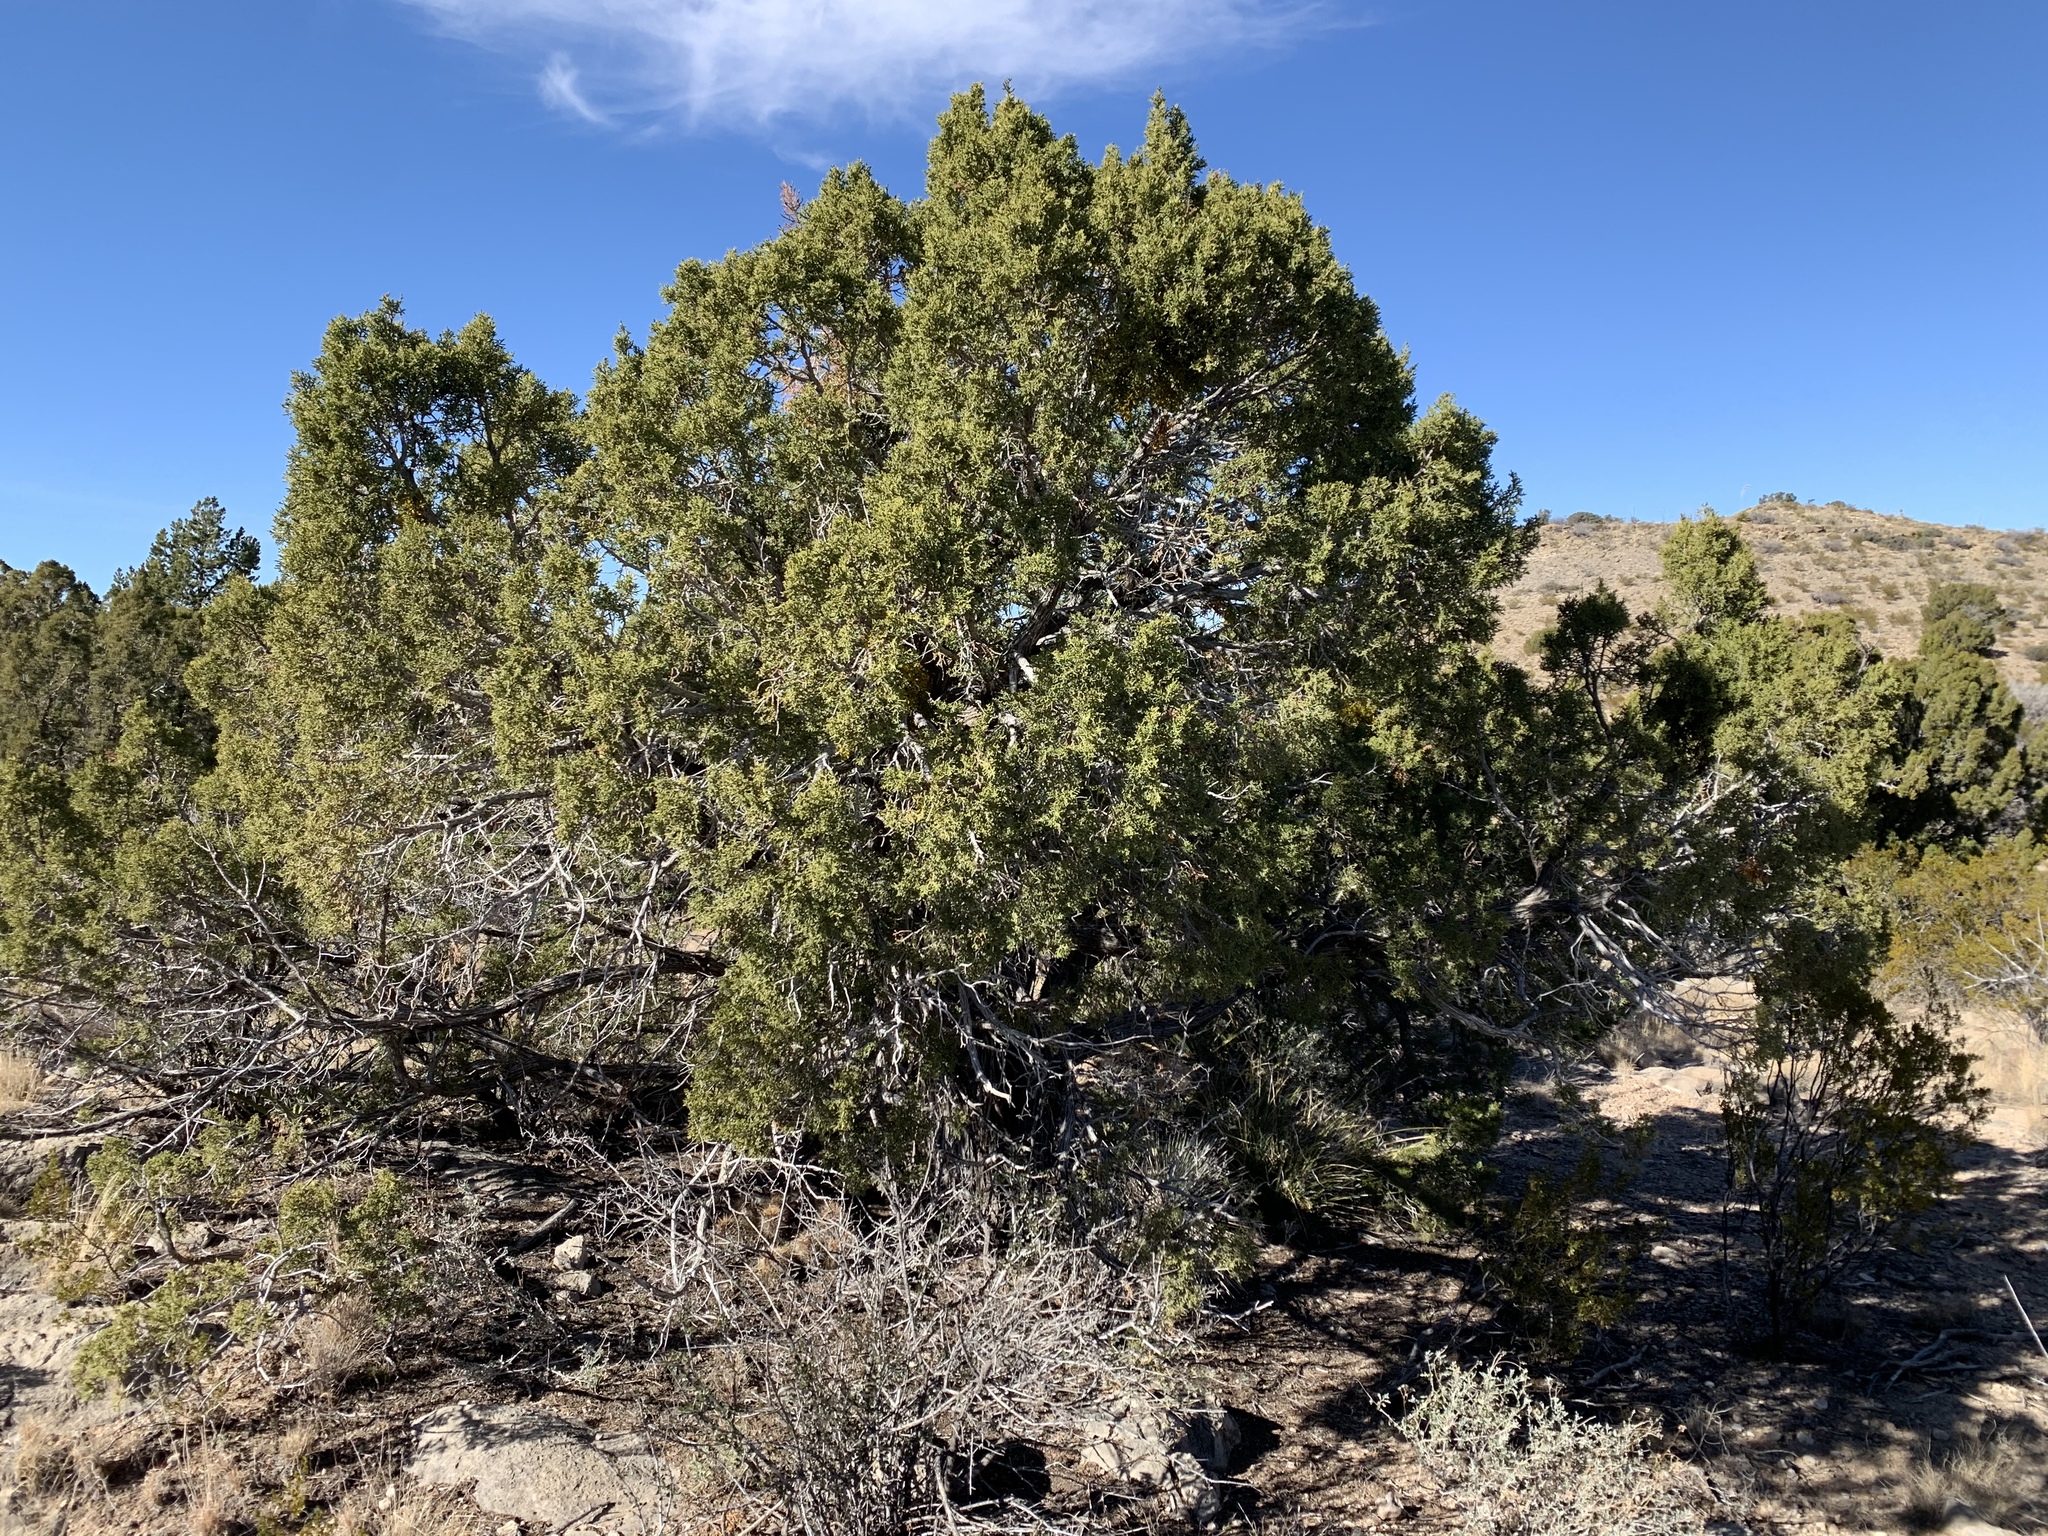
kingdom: Plantae
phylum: Tracheophyta
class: Pinopsida
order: Pinales
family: Cupressaceae
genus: Juniperus
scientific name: Juniperus monosperma
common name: One-seed juniper
